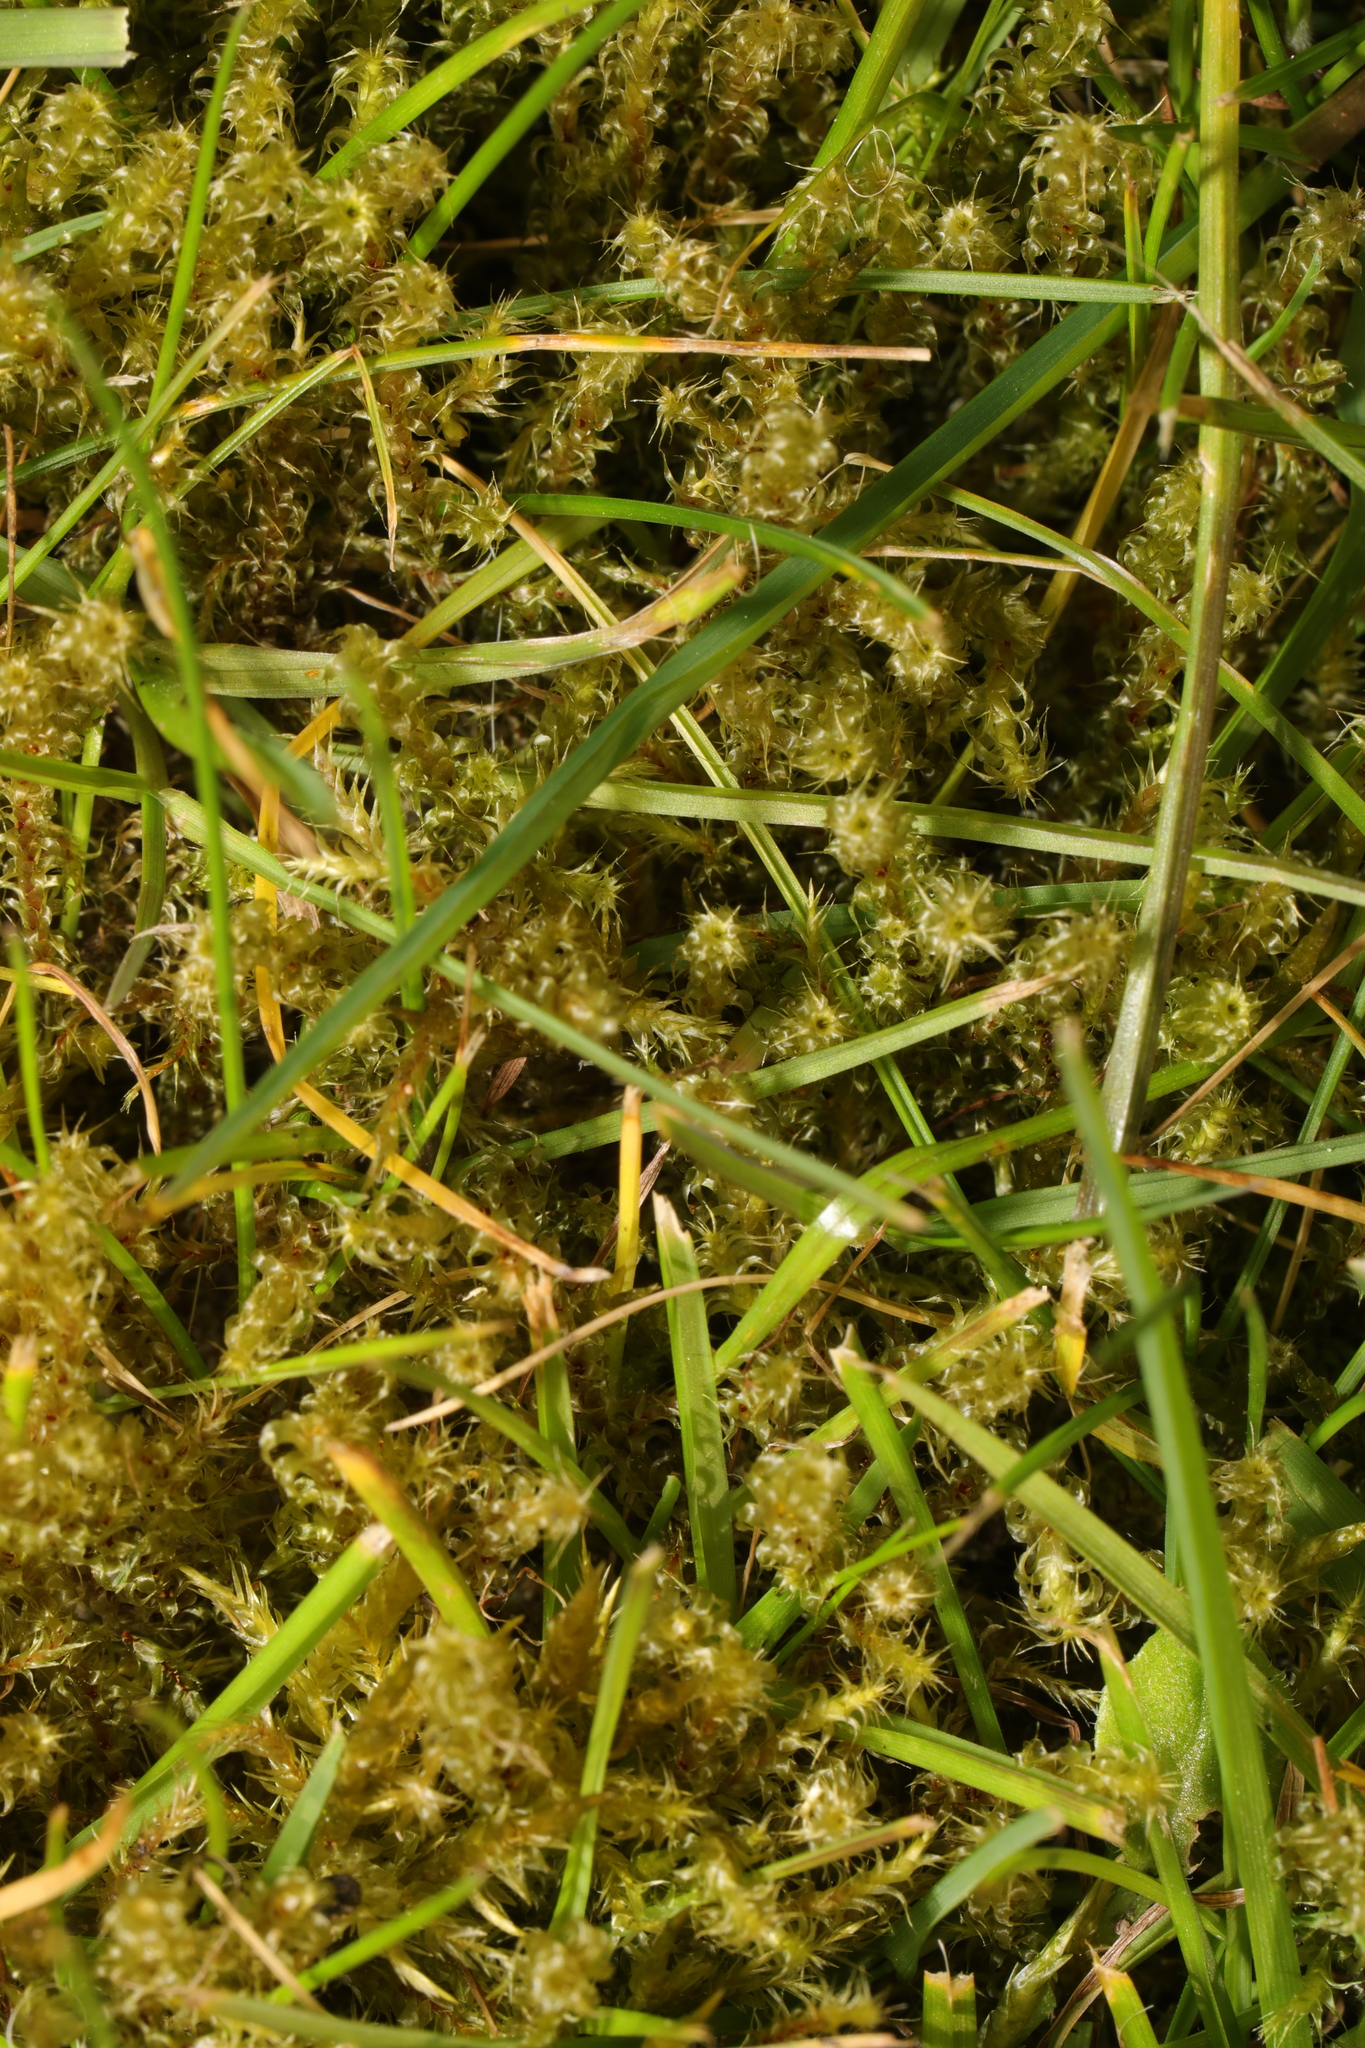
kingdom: Plantae
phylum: Bryophyta
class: Bryopsida
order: Hypnales
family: Hylocomiaceae
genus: Rhytidiadelphus
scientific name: Rhytidiadelphus squarrosus
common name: Springy turf-moss
